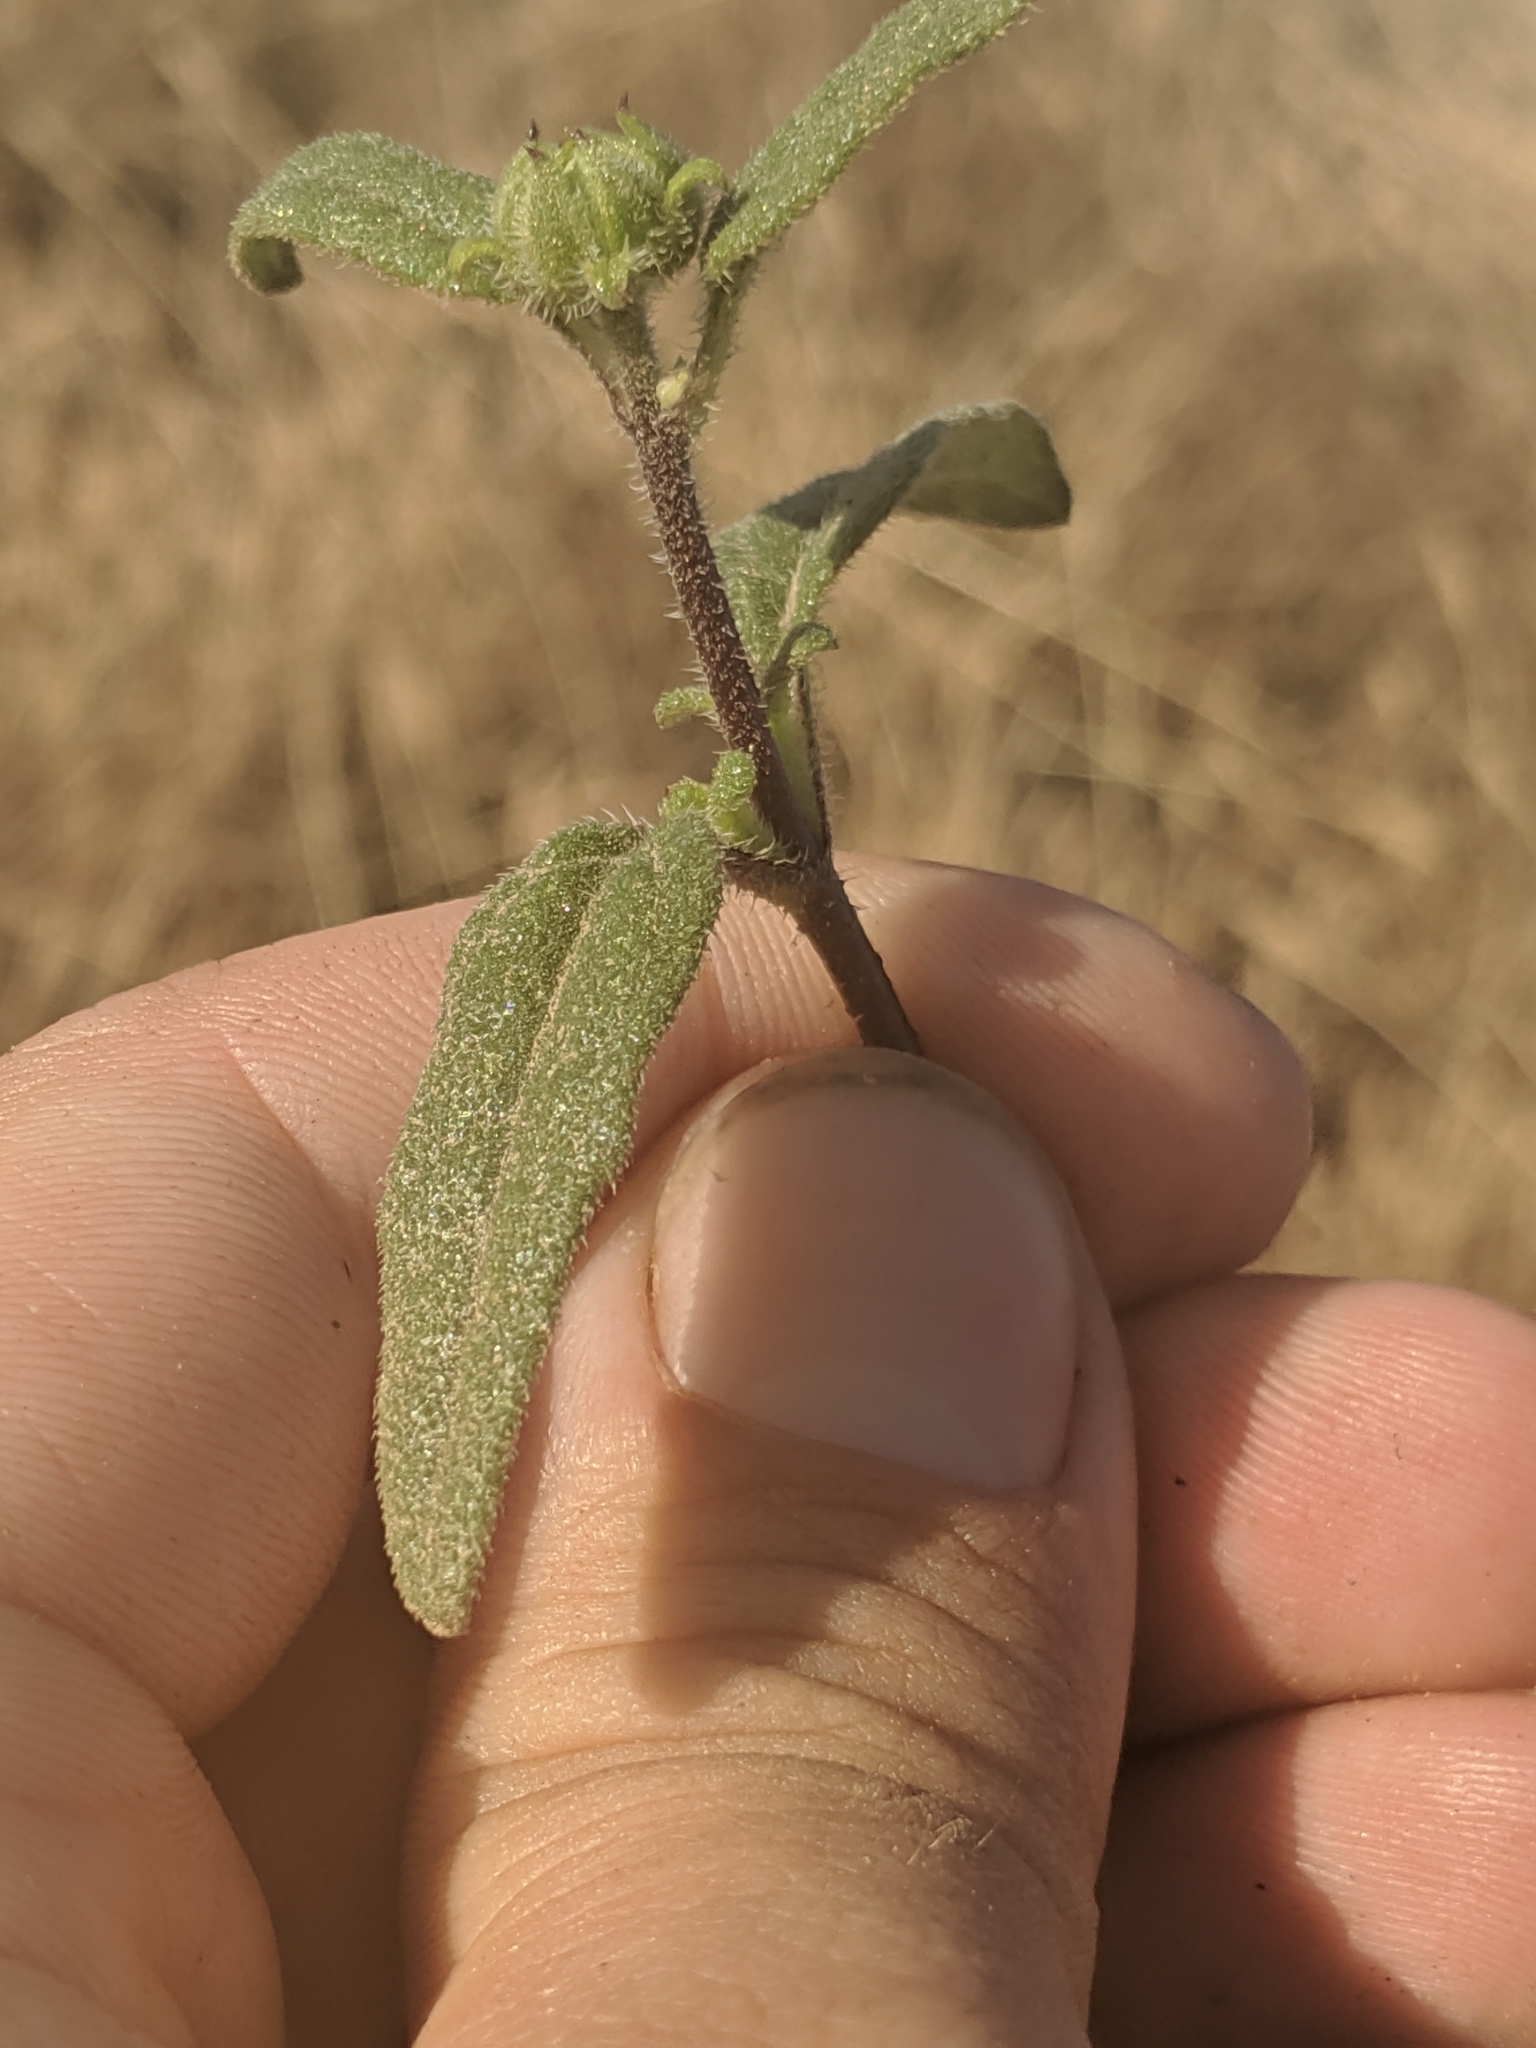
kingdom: Plantae
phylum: Tracheophyta
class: Magnoliopsida
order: Asterales
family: Asteraceae
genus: Helianthus
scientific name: Helianthus gracilentus
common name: Slender sunflower
